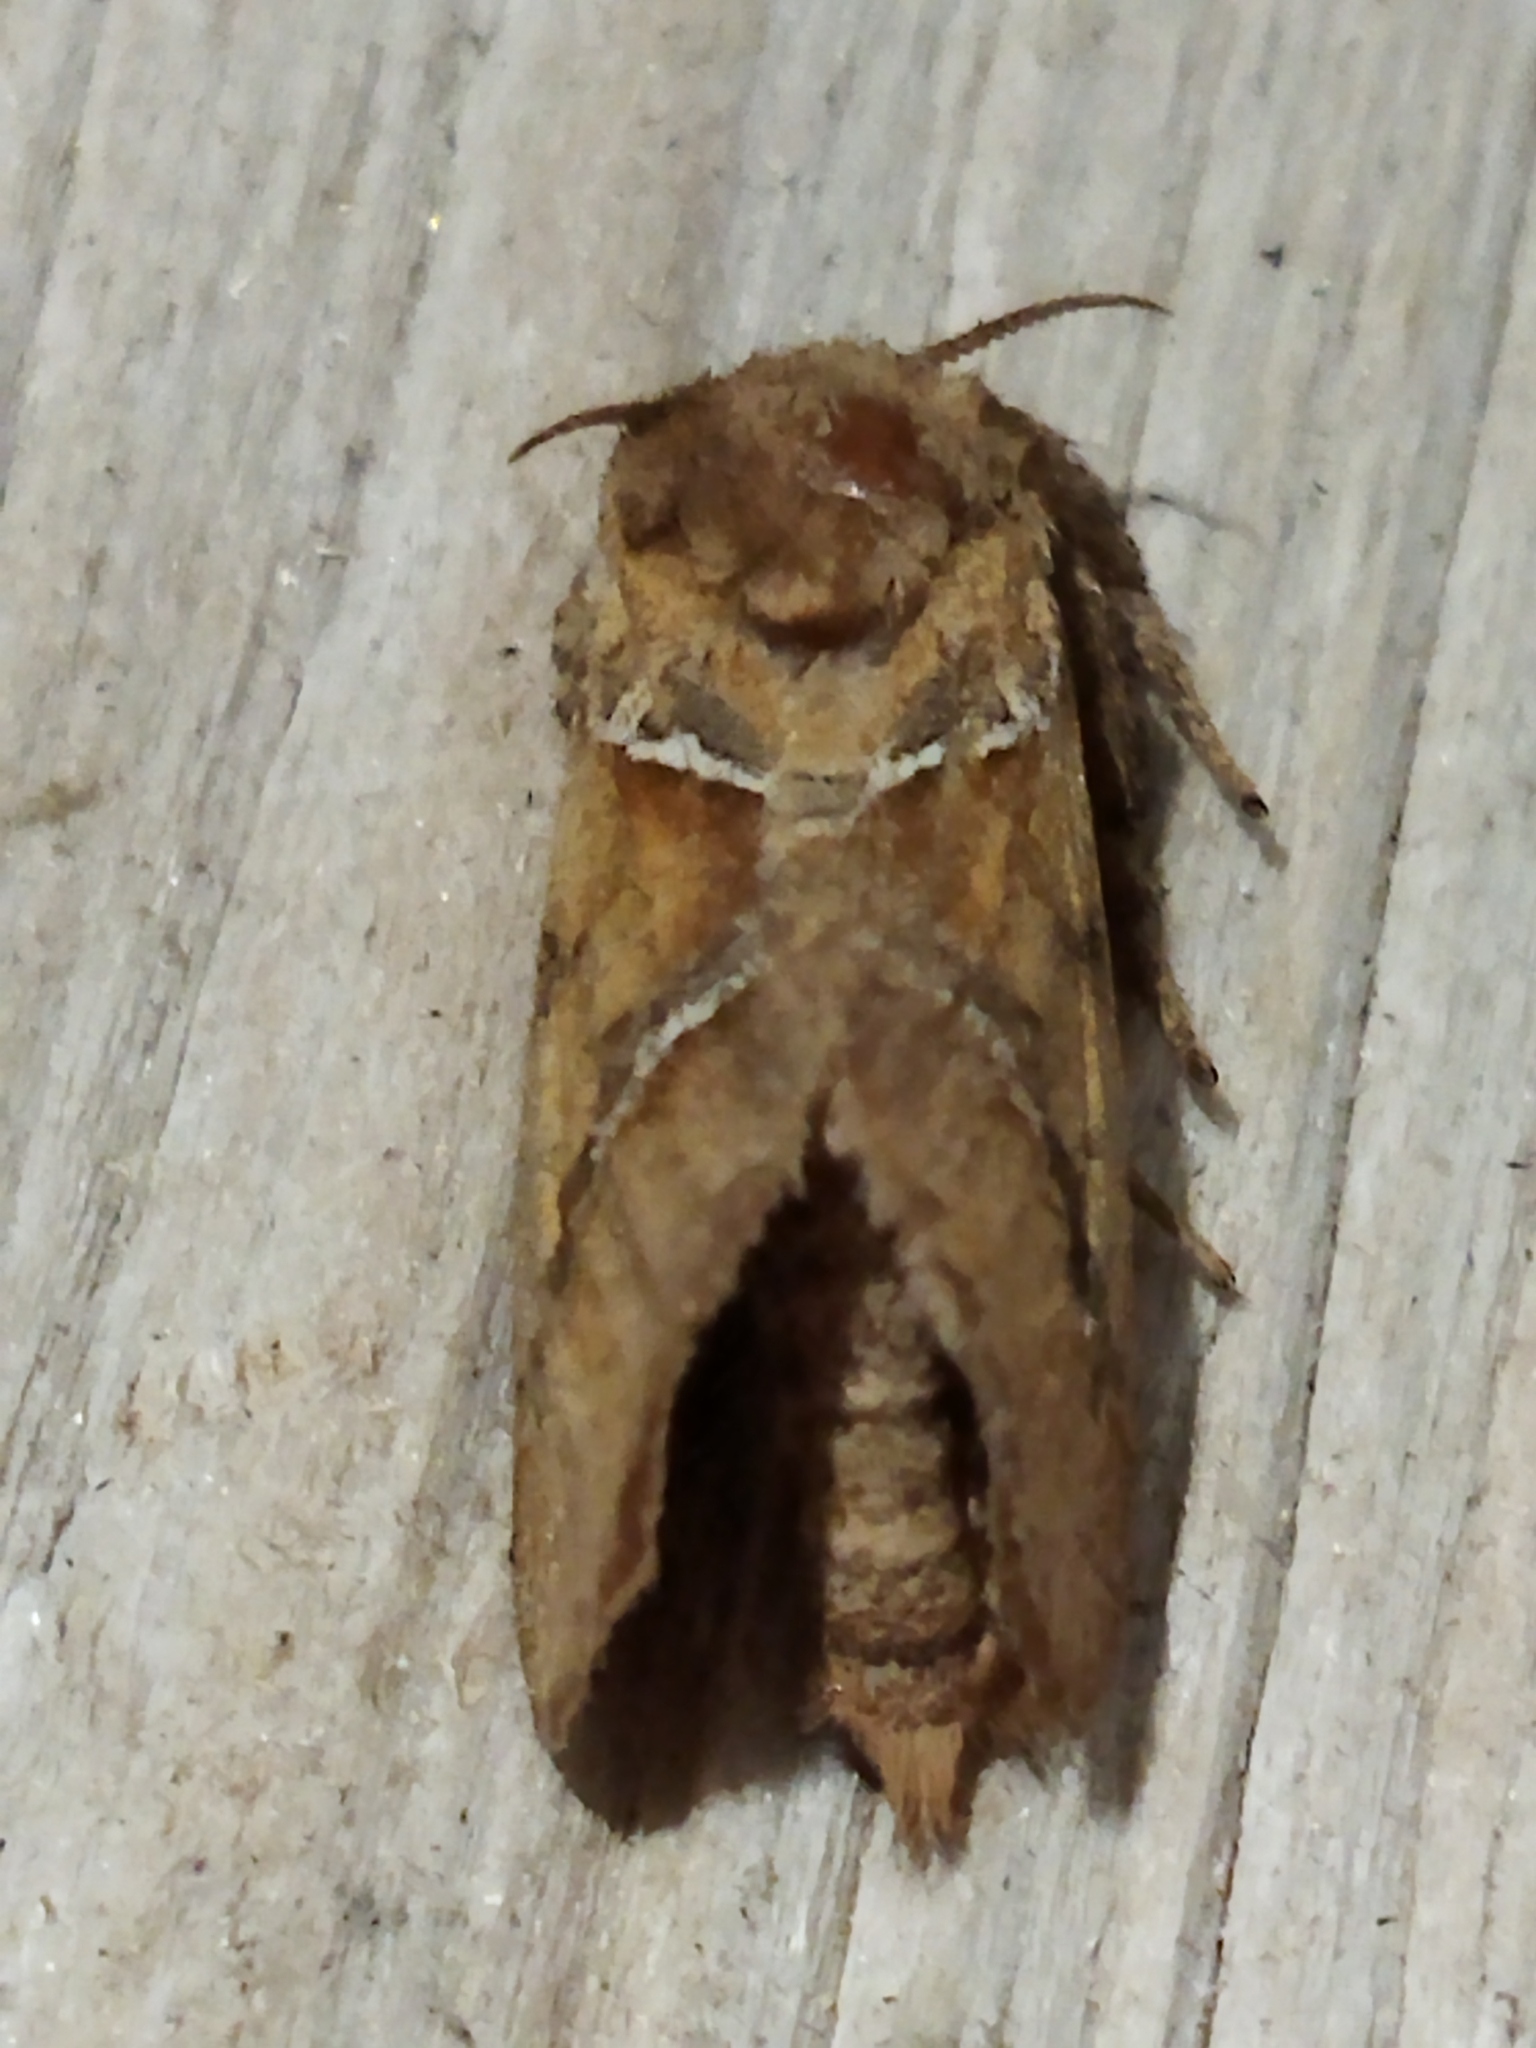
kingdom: Animalia
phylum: Arthropoda
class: Insecta
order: Lepidoptera
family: Hepialidae
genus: Triodia
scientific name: Triodia sylvina
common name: Orange swift
